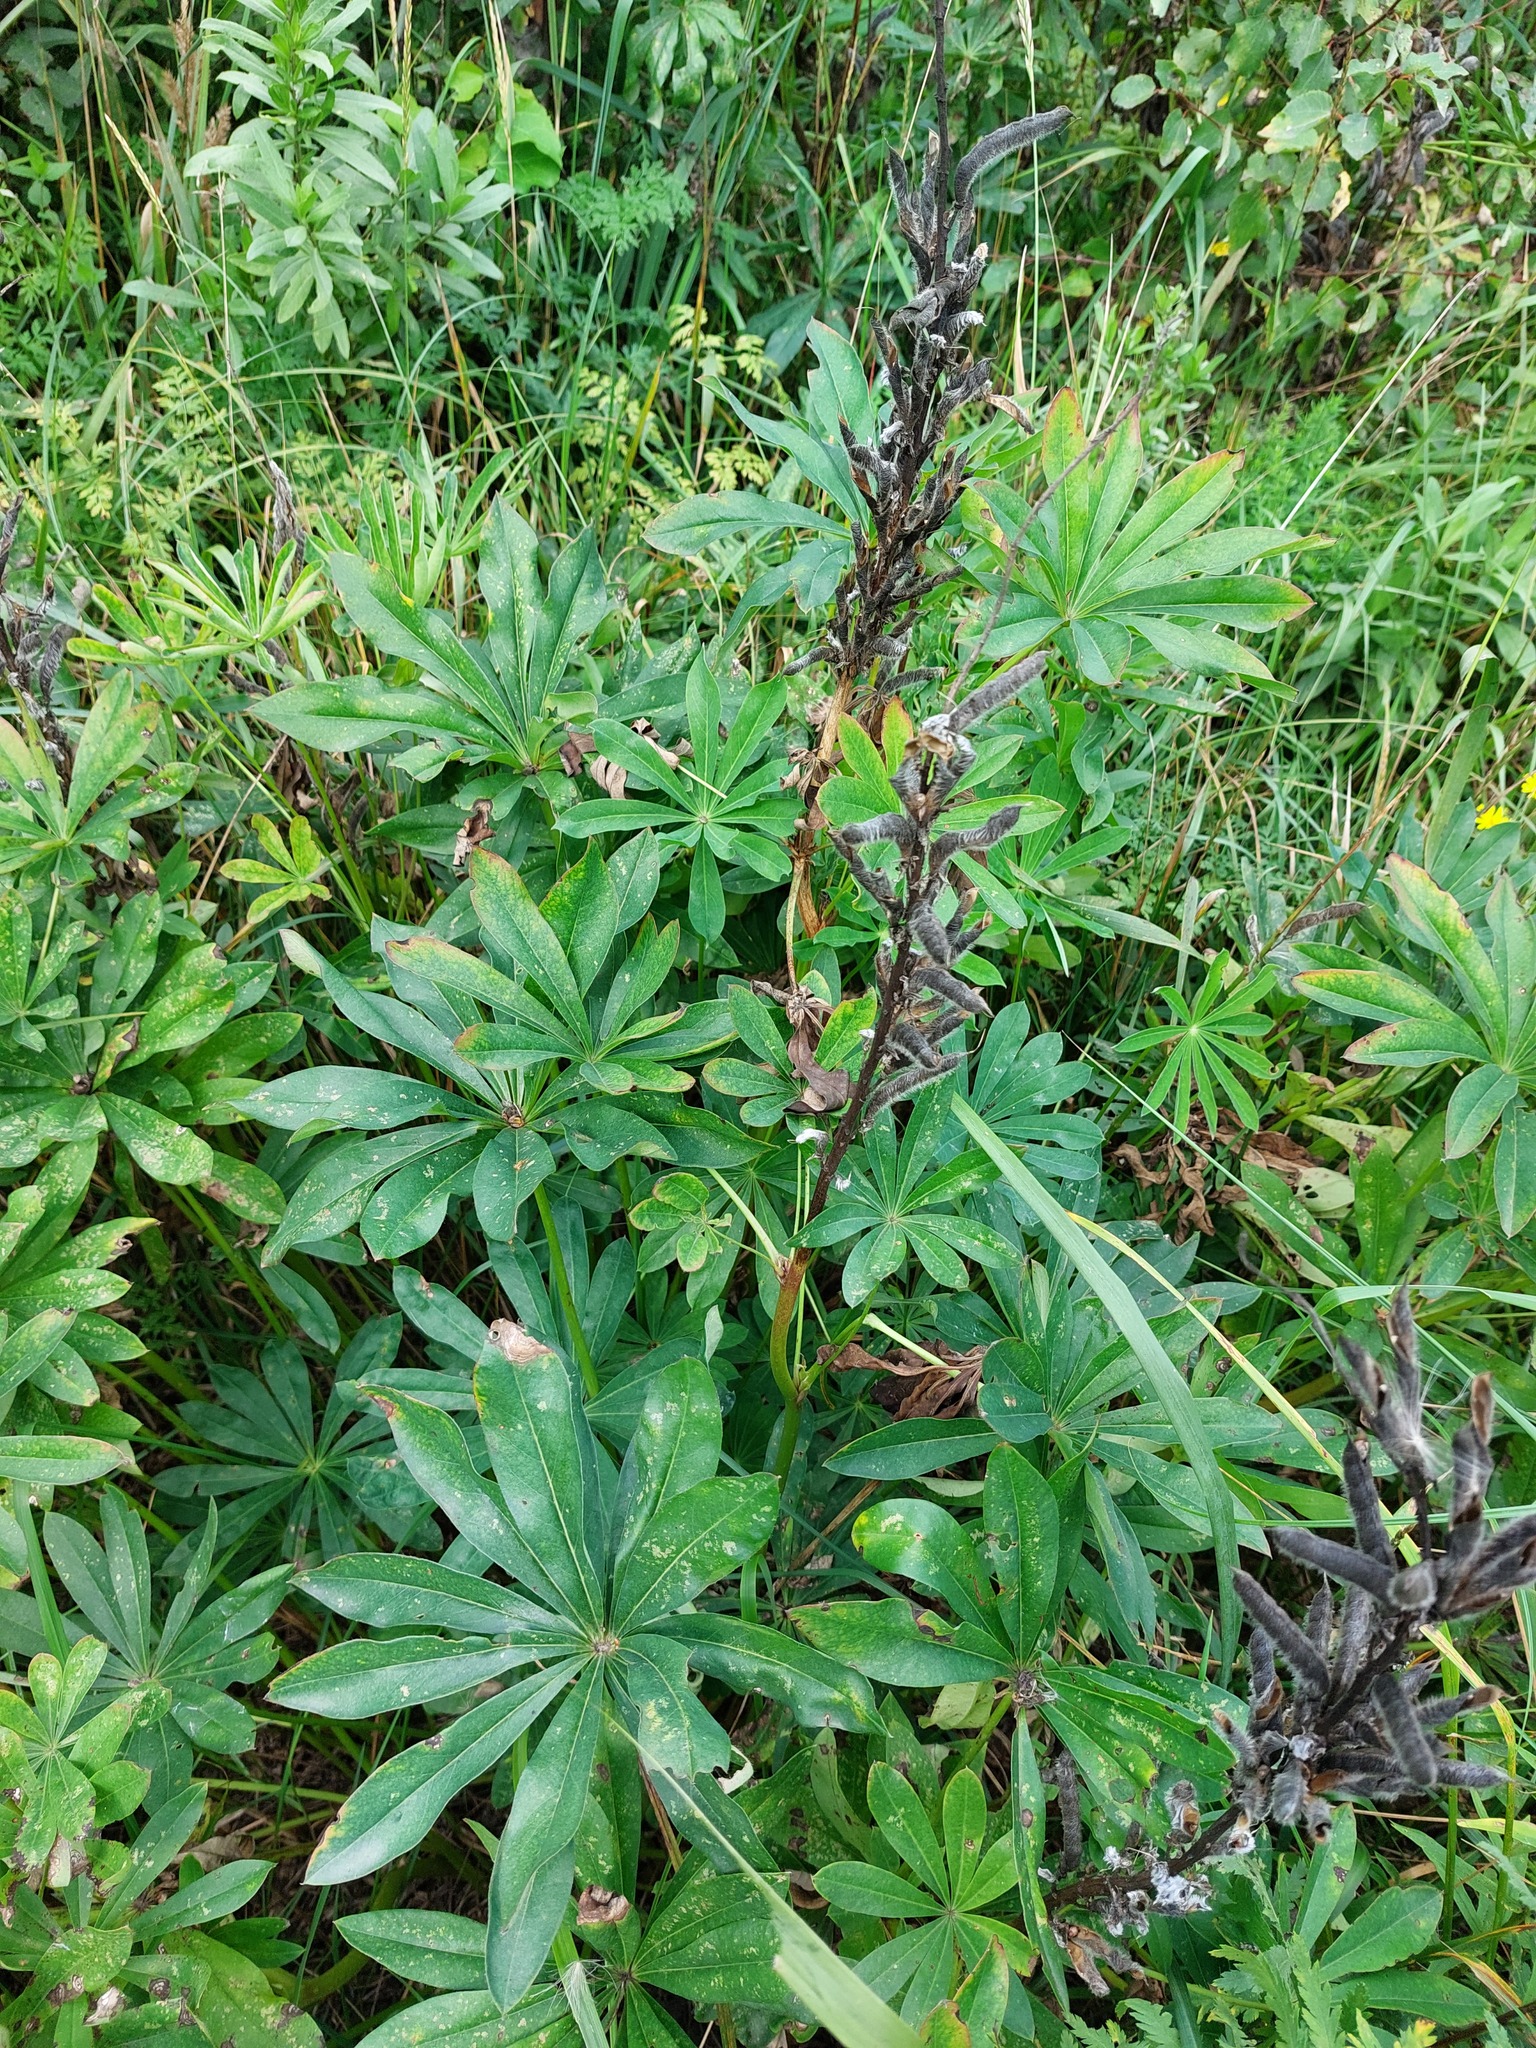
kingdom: Plantae
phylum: Tracheophyta
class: Magnoliopsida
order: Fabales
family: Fabaceae
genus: Lupinus
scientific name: Lupinus polyphyllus
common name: Garden lupin
